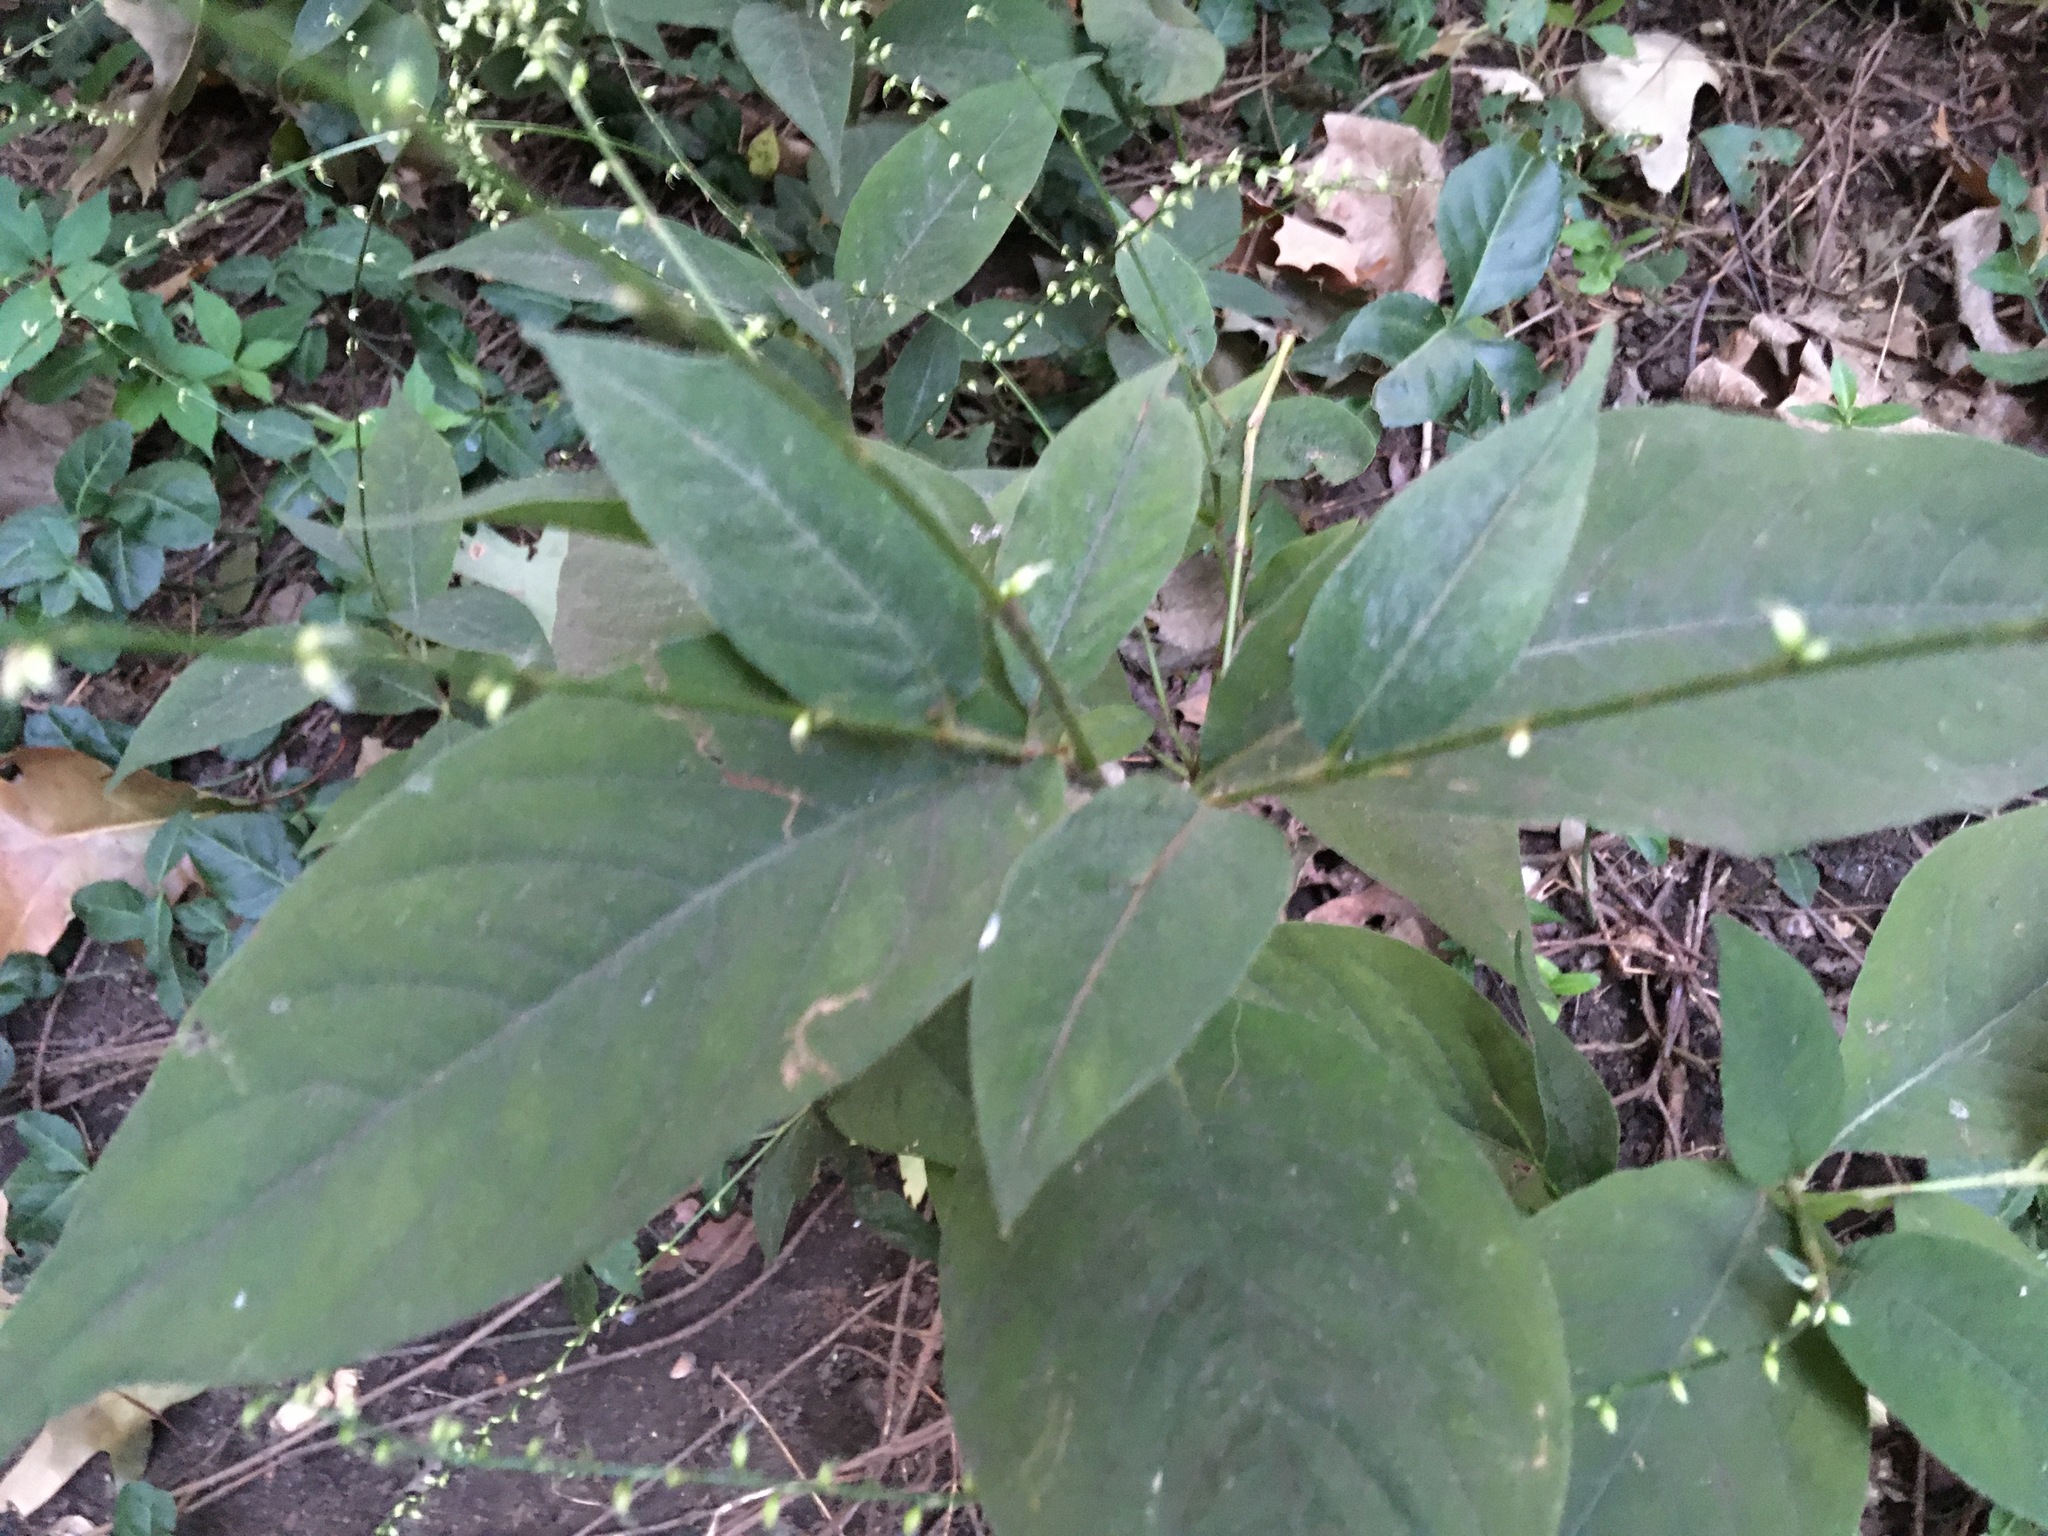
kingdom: Plantae
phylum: Tracheophyta
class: Magnoliopsida
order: Caryophyllales
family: Polygonaceae
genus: Persicaria
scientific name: Persicaria virginiana
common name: Jumpseed
